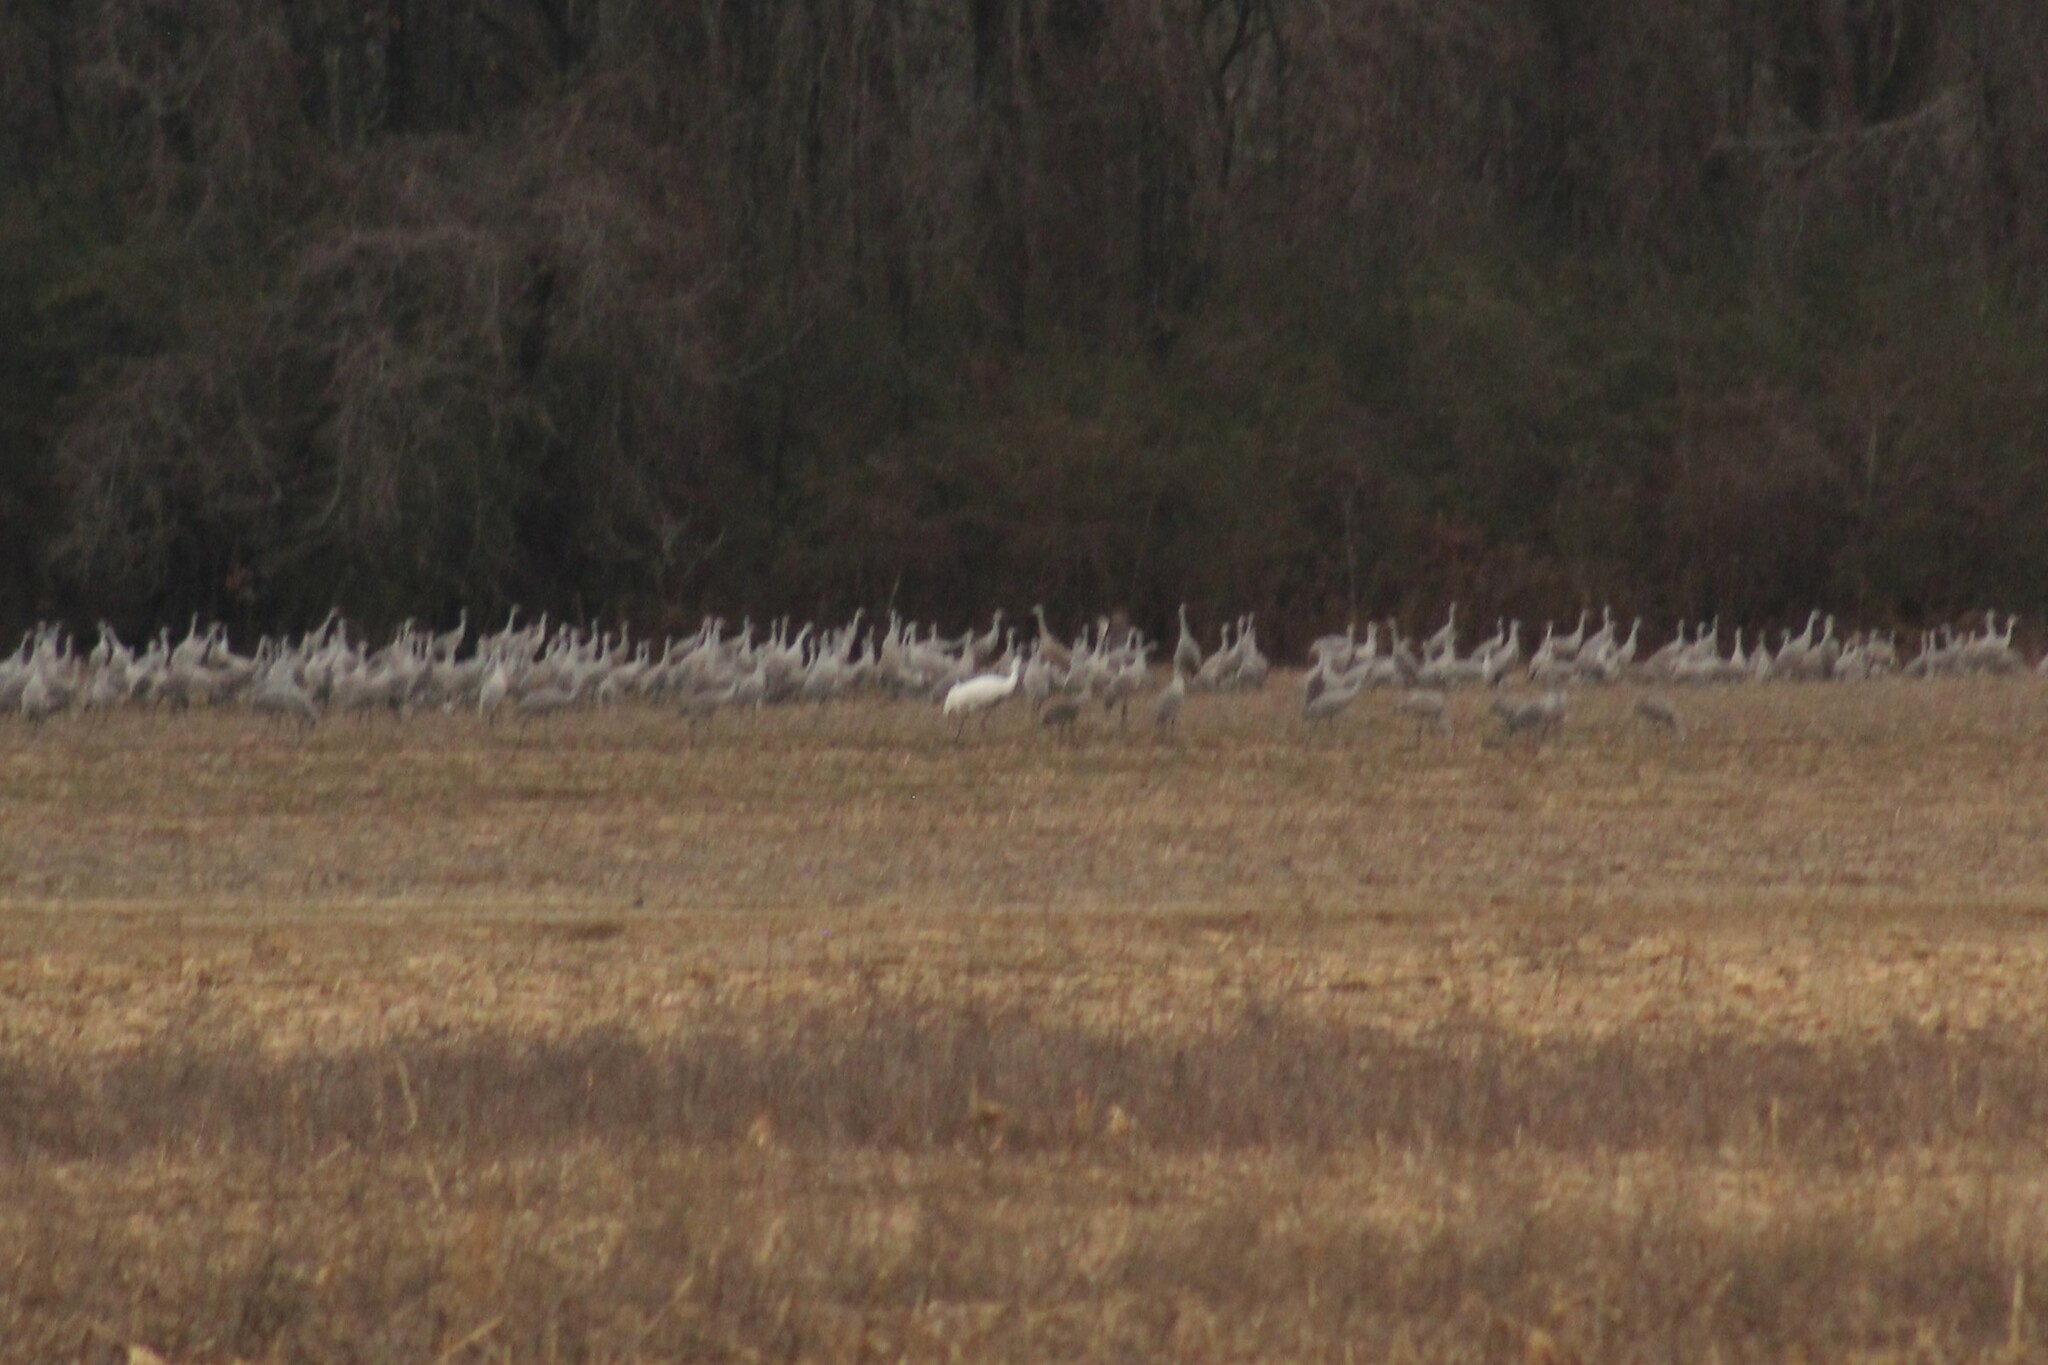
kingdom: Animalia
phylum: Chordata
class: Aves
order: Gruiformes
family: Gruidae
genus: Grus
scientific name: Grus americana
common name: Whooping crane
